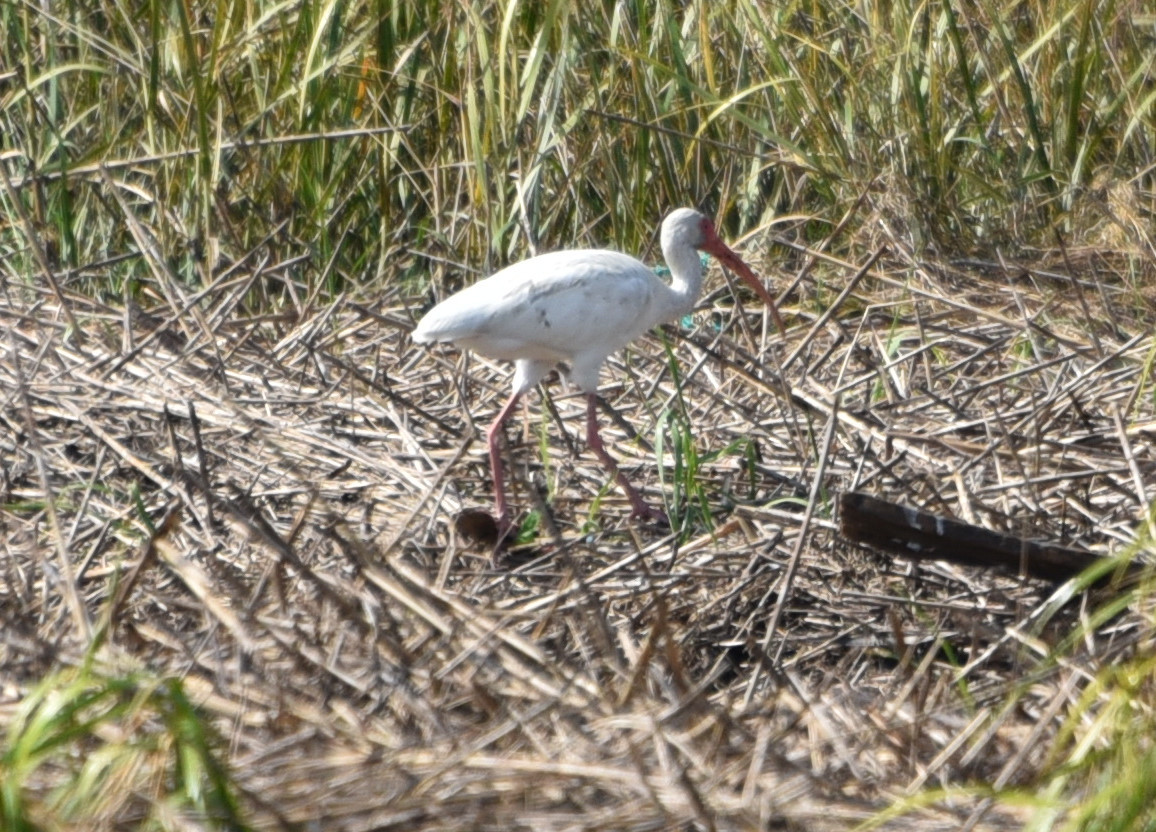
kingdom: Animalia
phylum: Chordata
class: Aves
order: Pelecaniformes
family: Threskiornithidae
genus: Eudocimus
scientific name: Eudocimus albus
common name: White ibis
